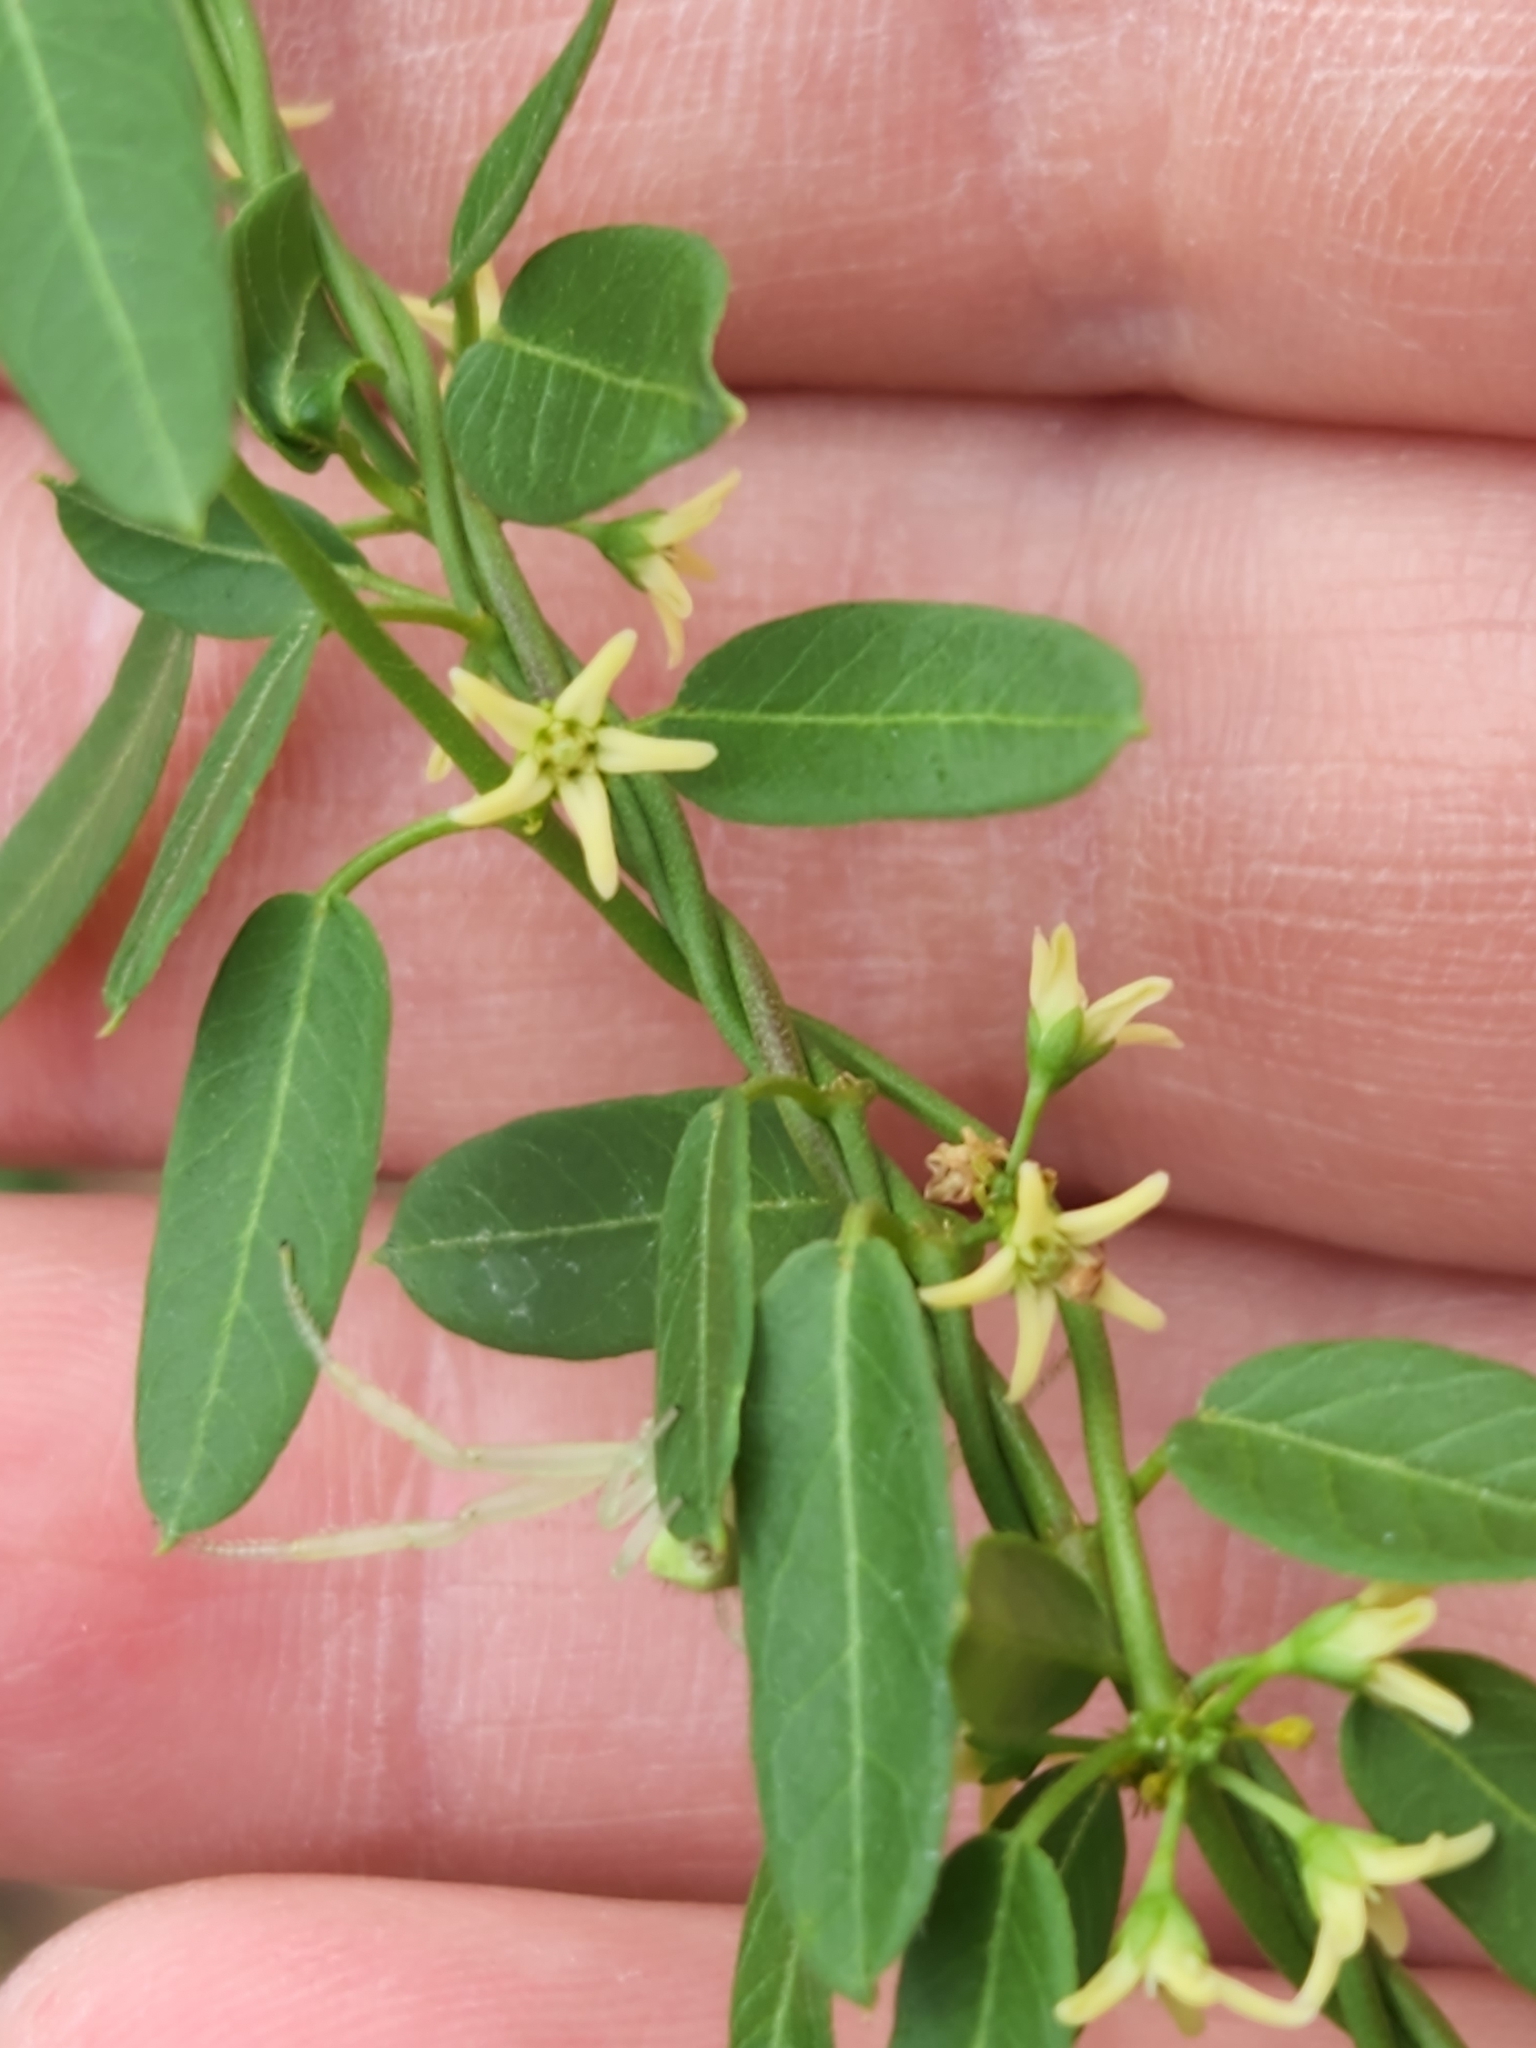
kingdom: Plantae
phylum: Tracheophyta
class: Magnoliopsida
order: Gentianales
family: Apocynaceae
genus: Metastelma
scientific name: Metastelma palmeri
